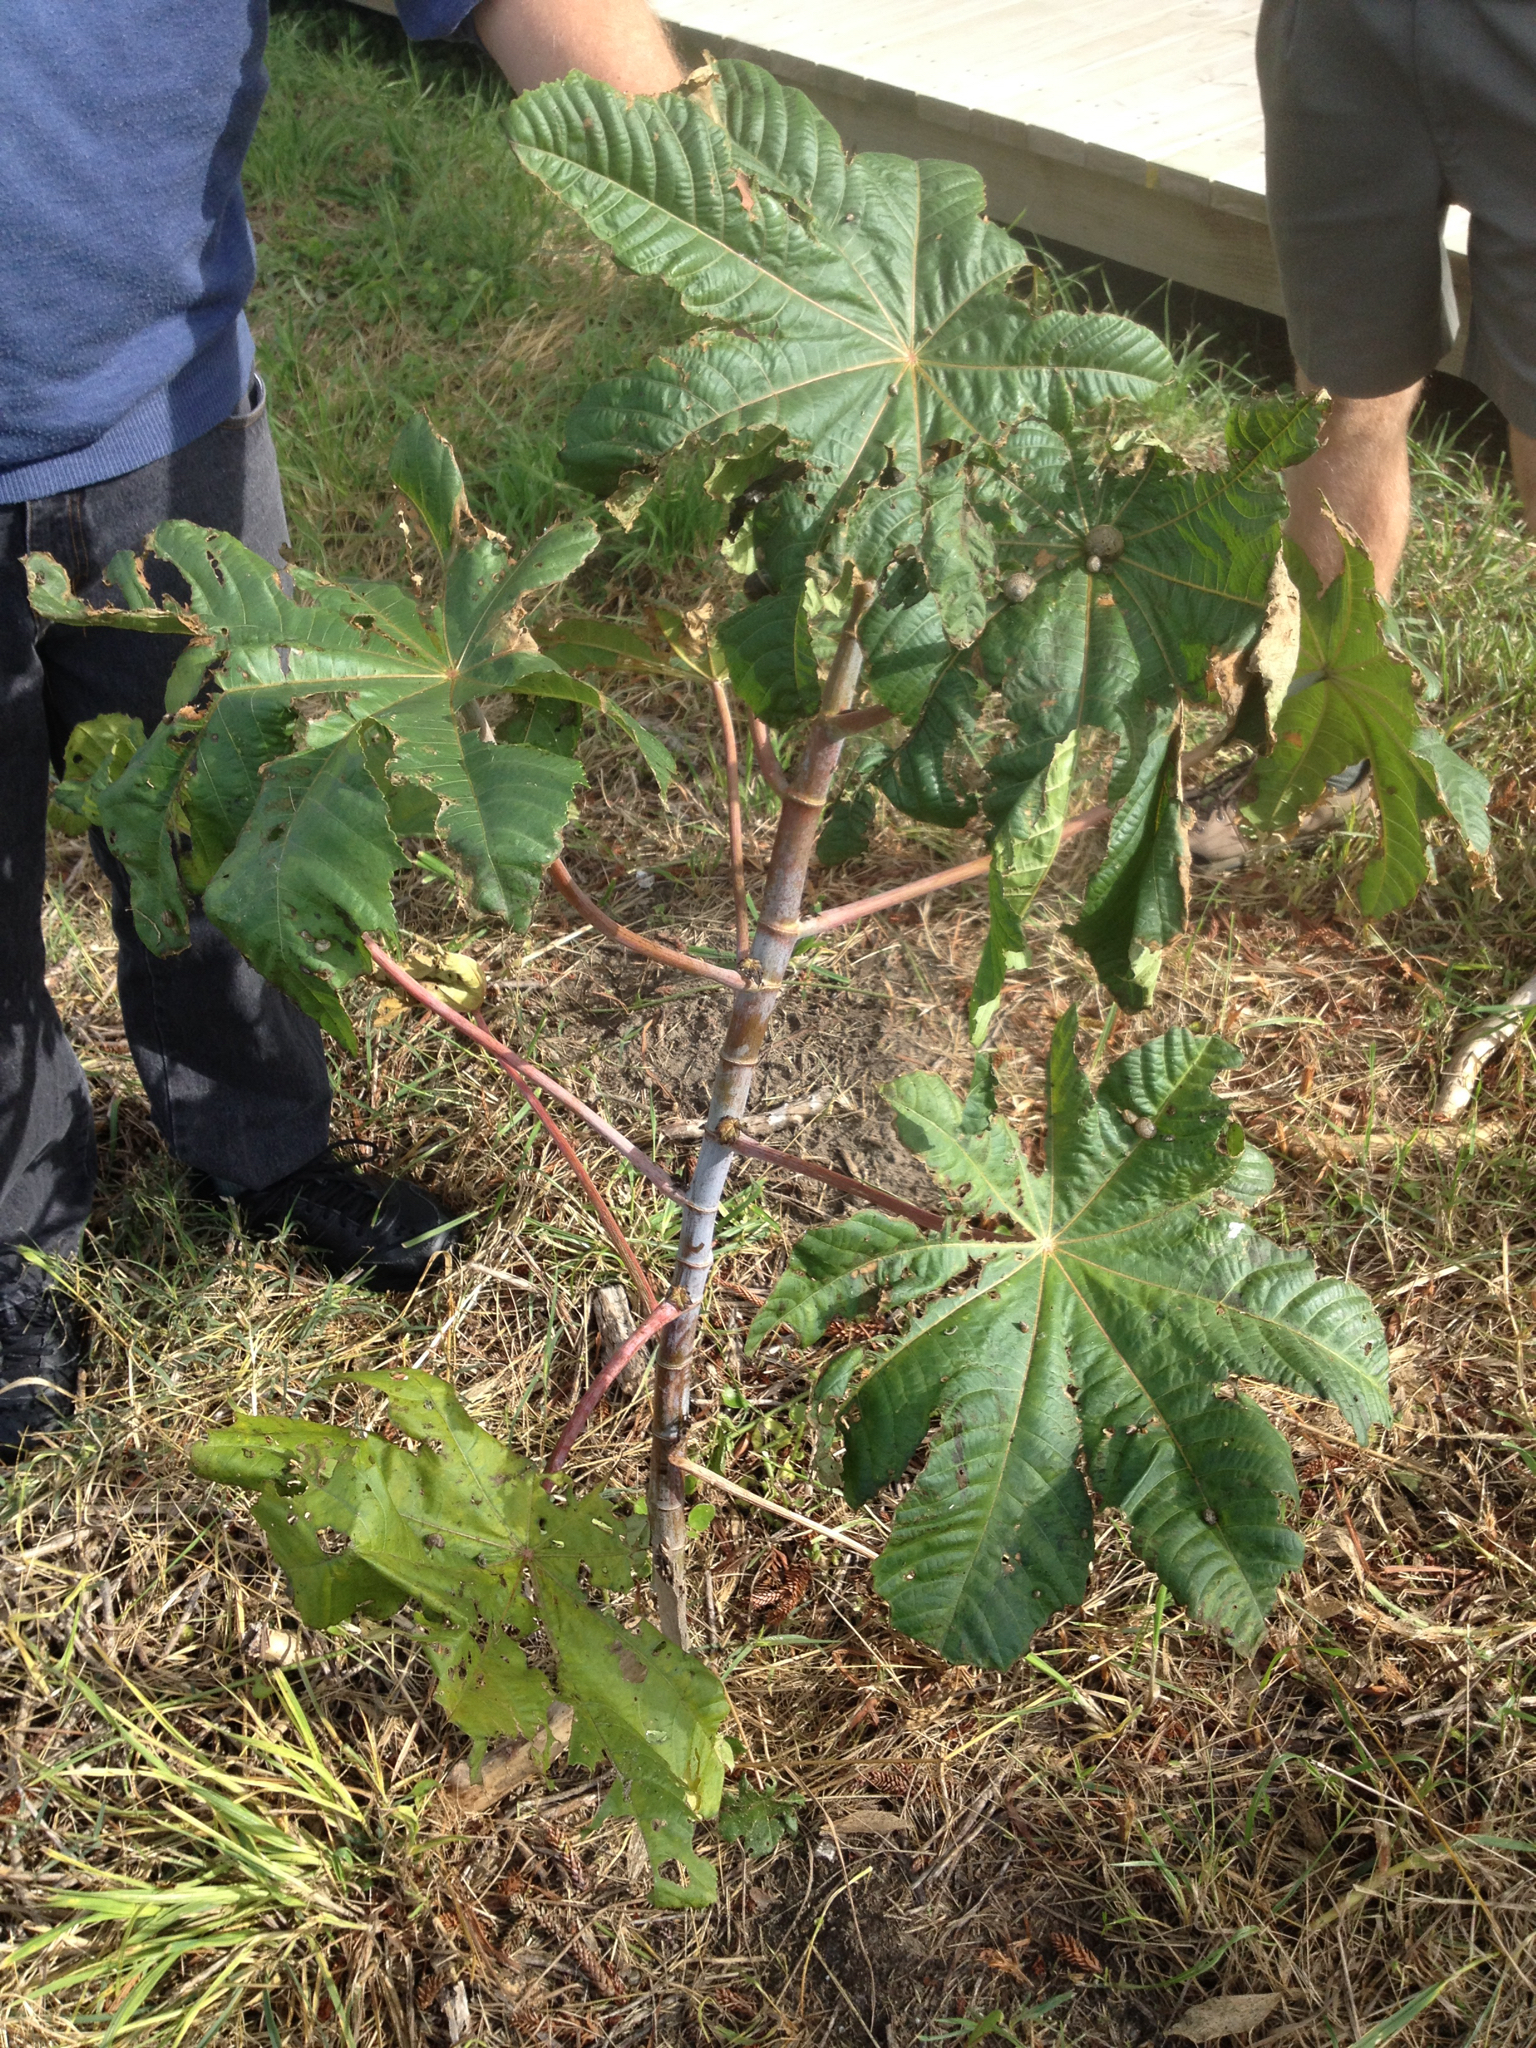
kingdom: Plantae
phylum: Tracheophyta
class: Magnoliopsida
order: Malpighiales
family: Euphorbiaceae
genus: Ricinus
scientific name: Ricinus communis
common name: Castor-oil-plant
